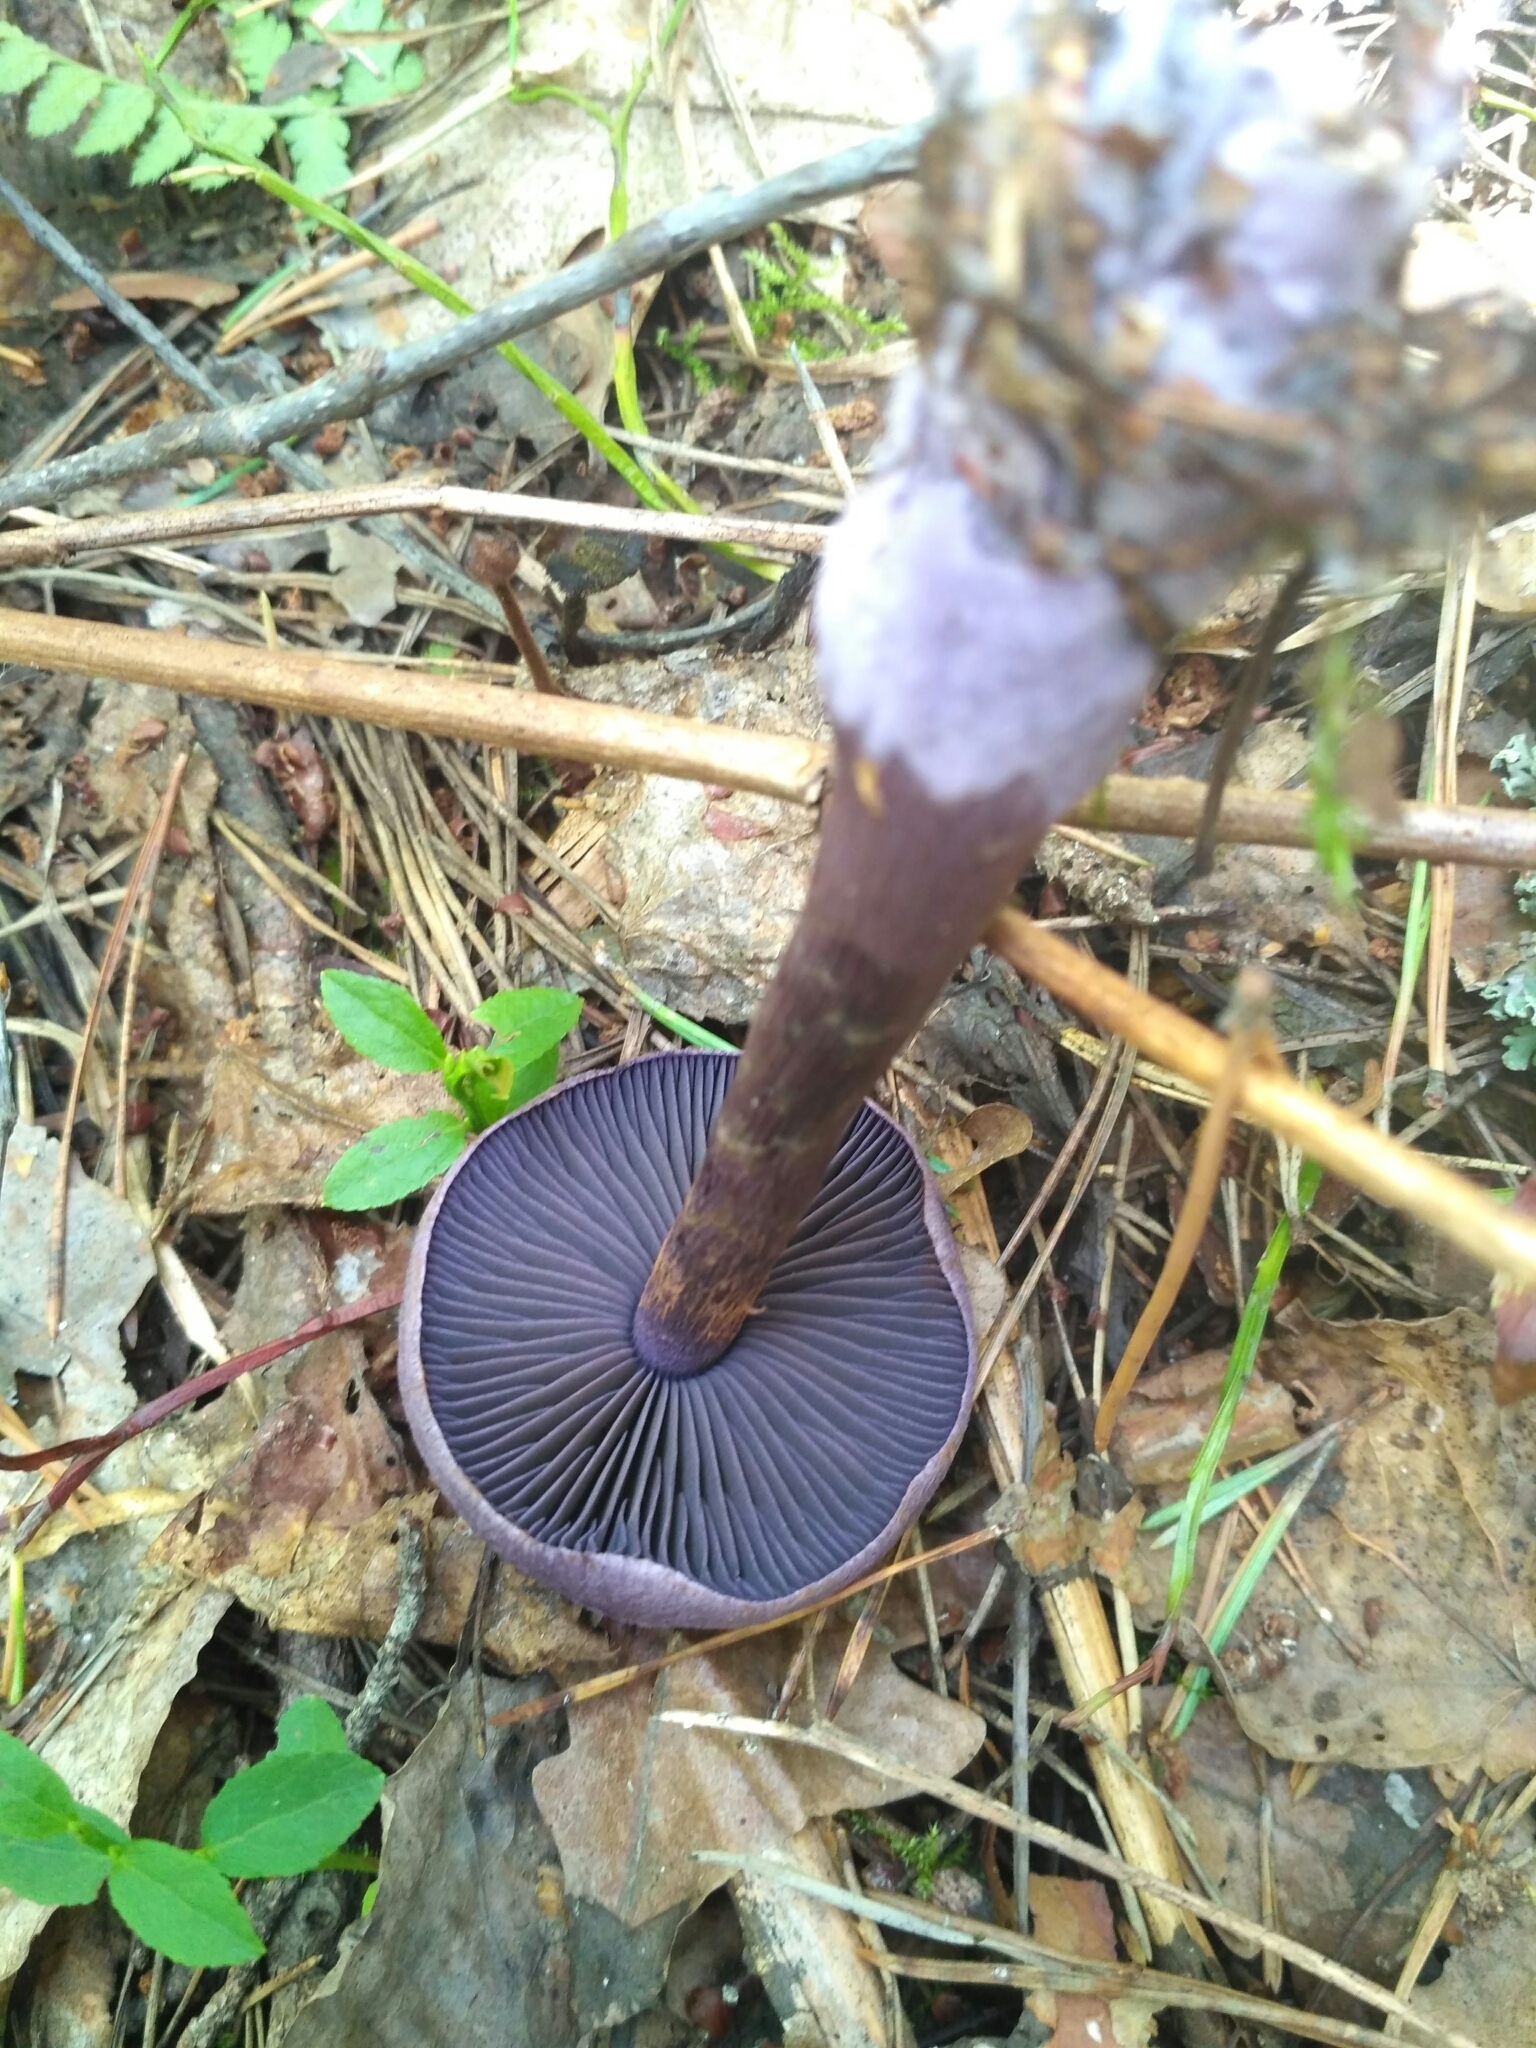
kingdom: Fungi
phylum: Basidiomycota
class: Agaricomycetes
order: Agaricales
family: Cortinariaceae
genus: Cortinarius
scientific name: Cortinarius violaceus
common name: Violet webcap
